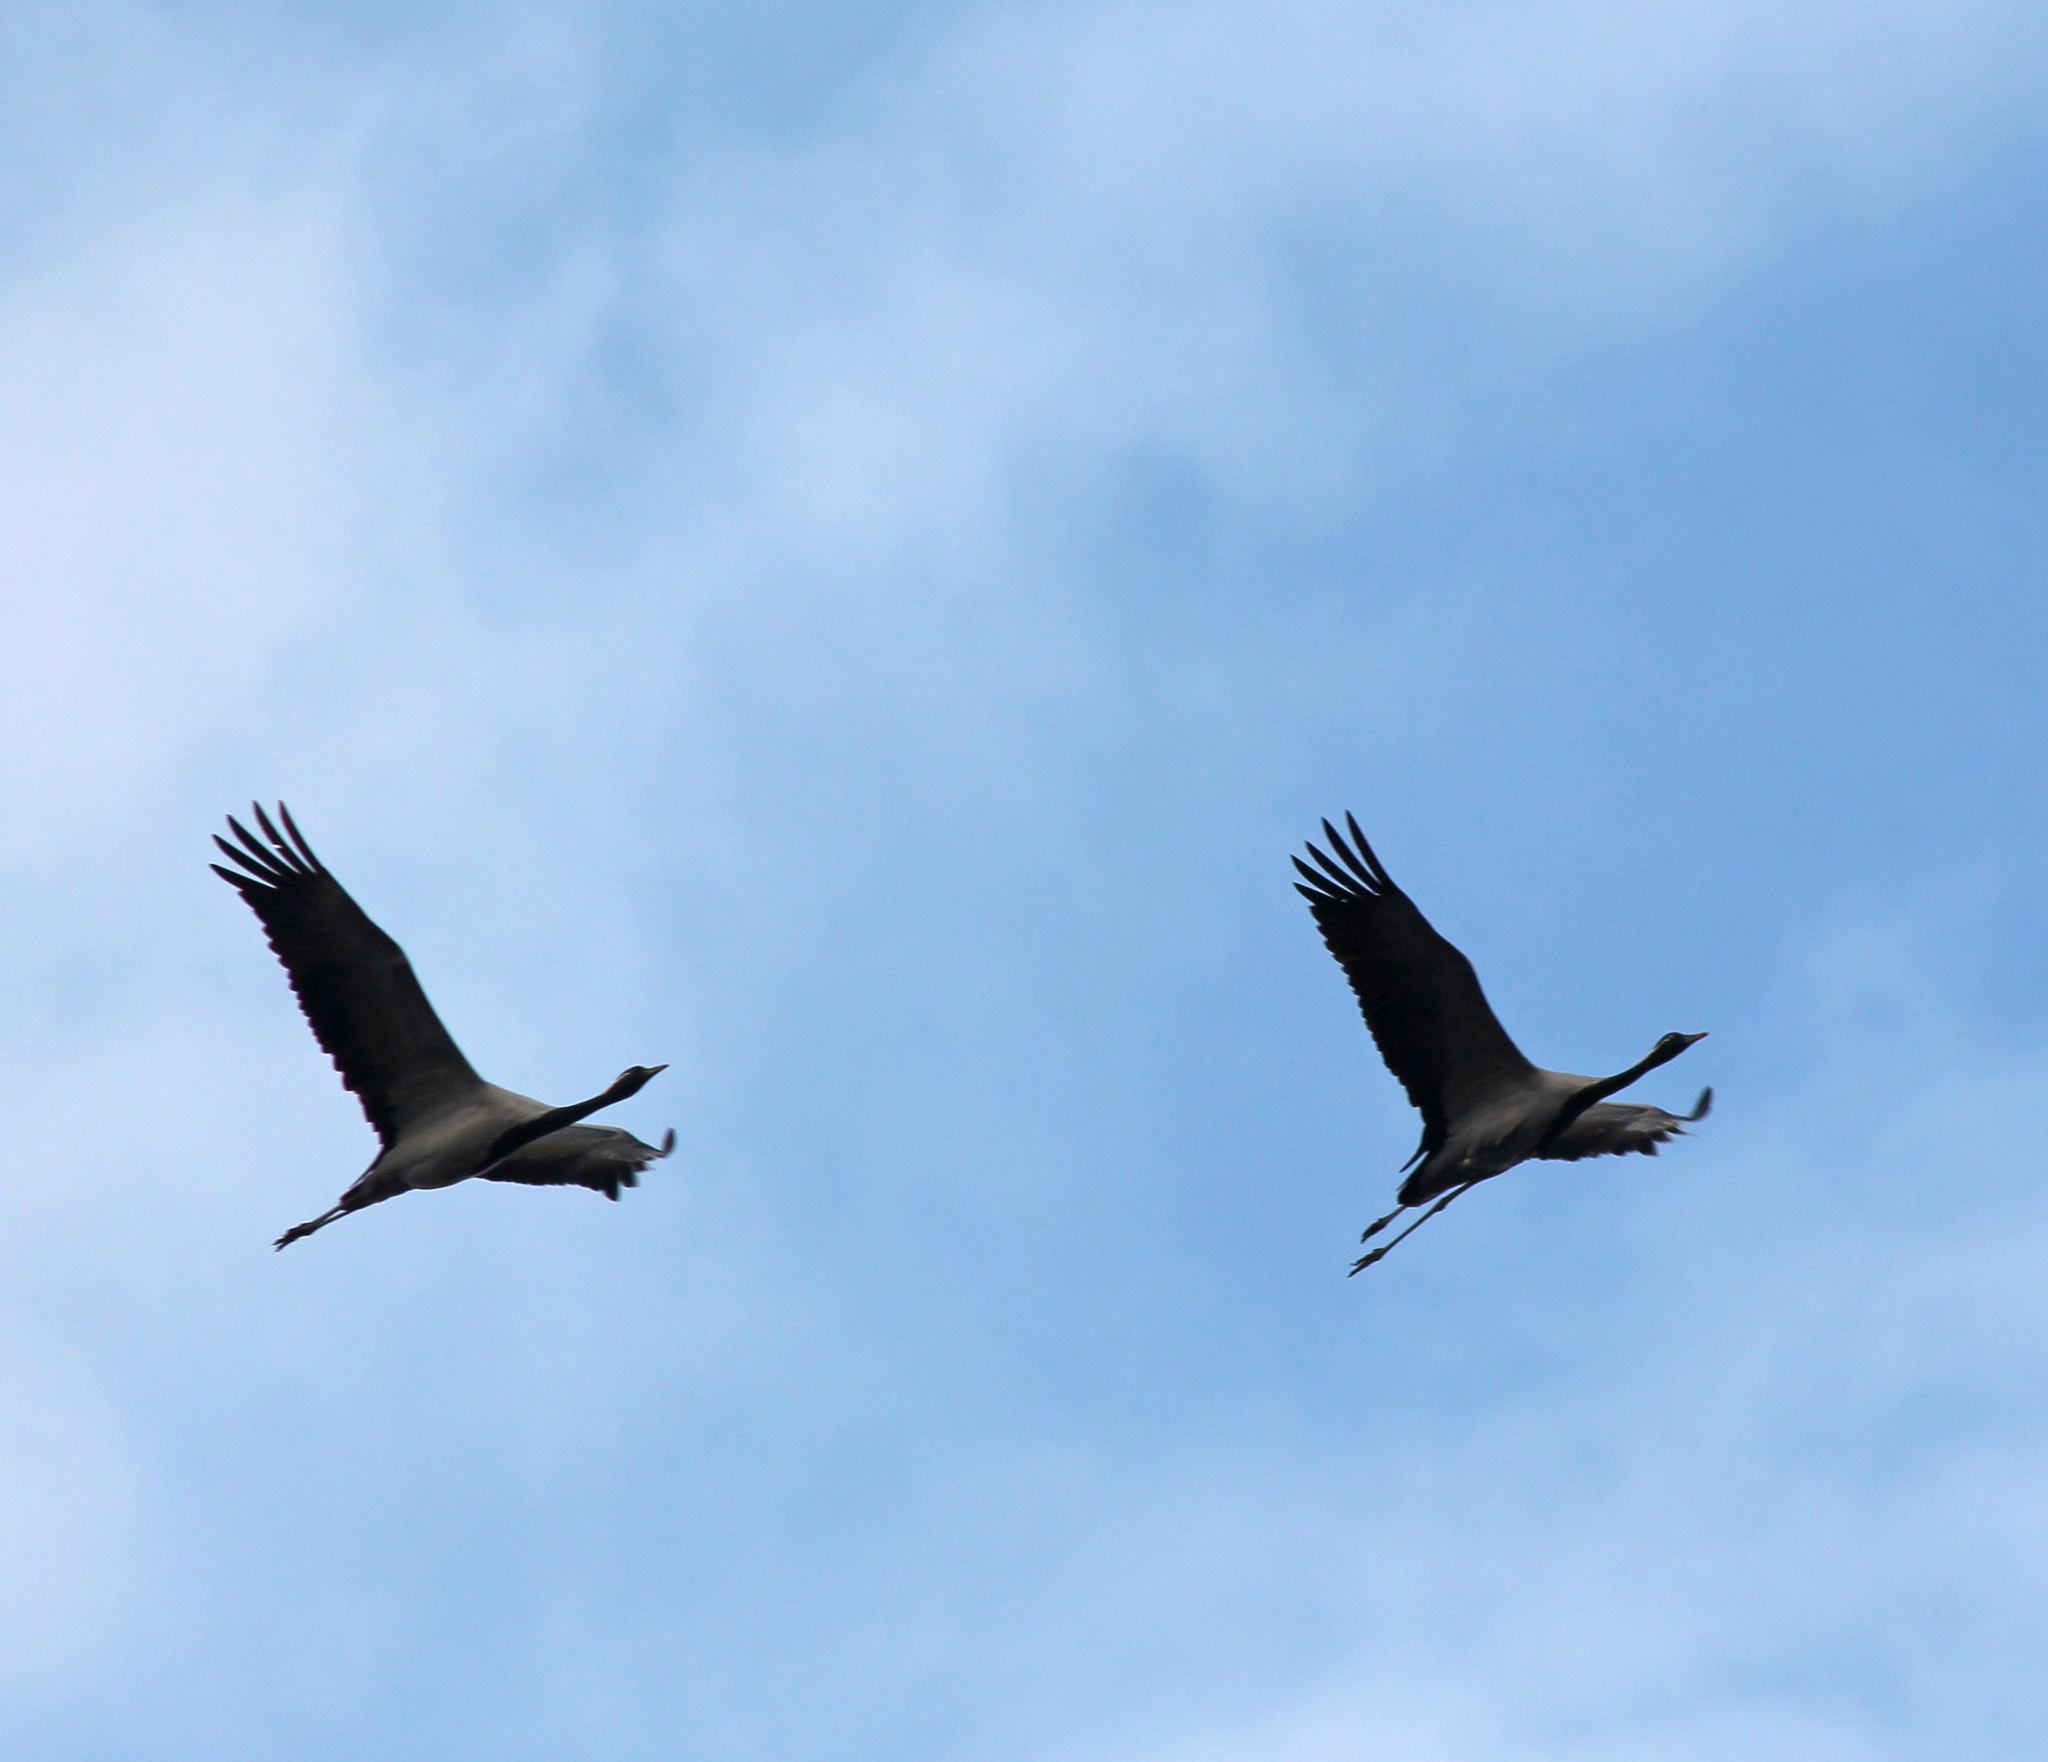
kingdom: Animalia
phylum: Chordata
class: Aves
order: Gruiformes
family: Gruidae
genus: Anthropoides
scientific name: Anthropoides virgo
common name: Demoiselle crane
